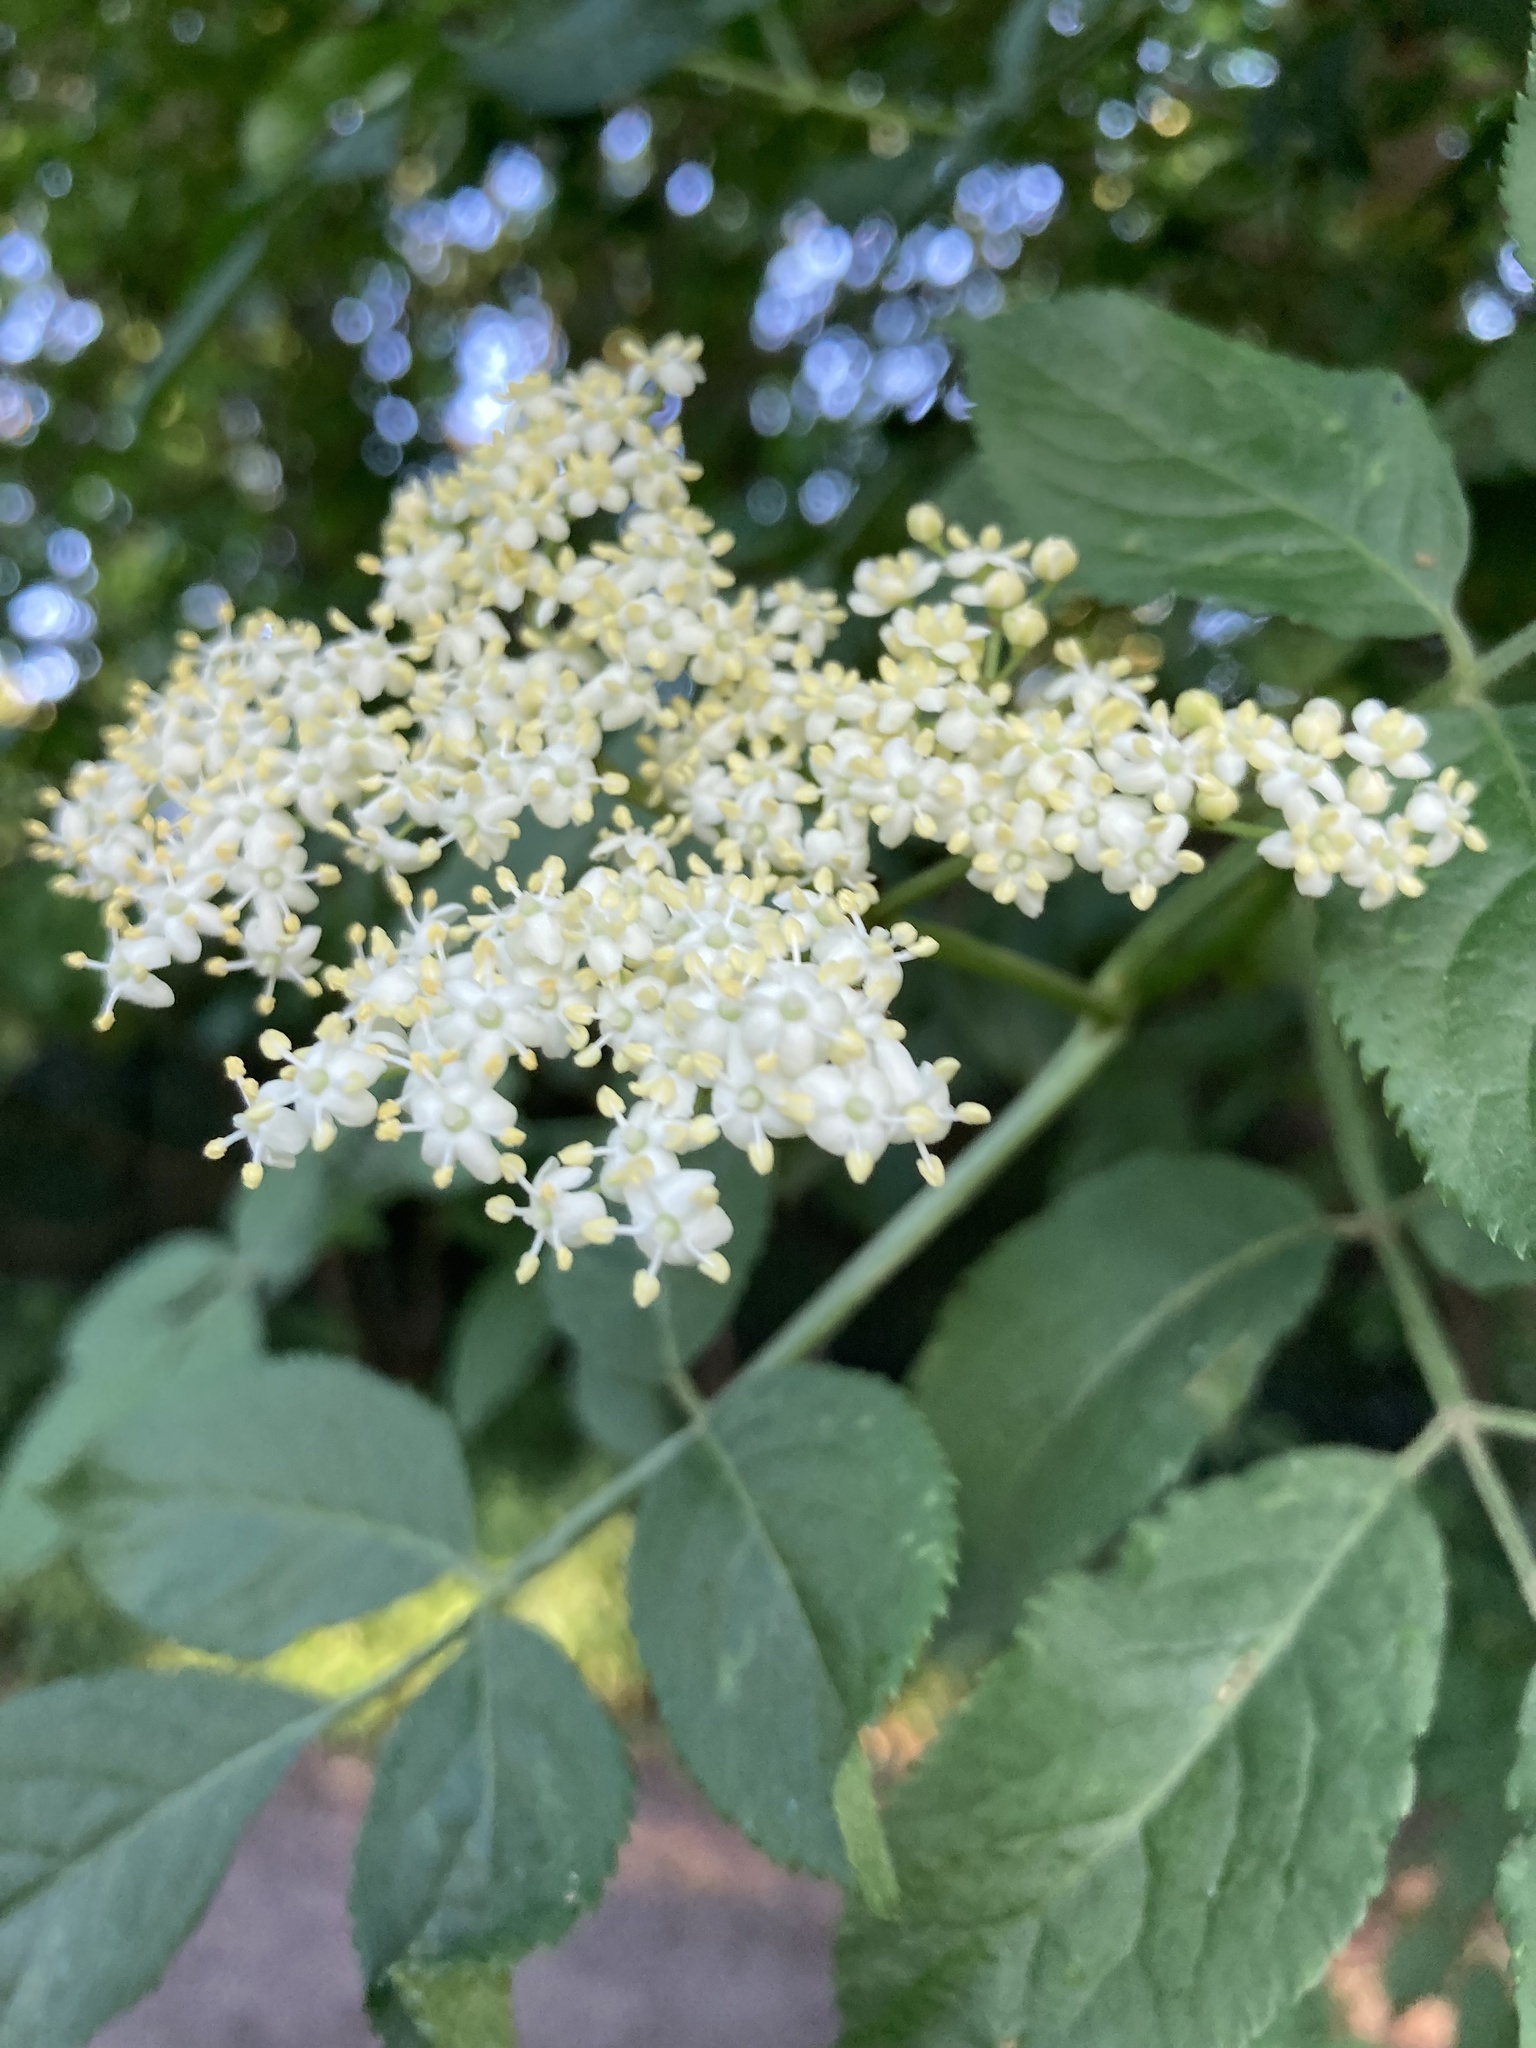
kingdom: Plantae
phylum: Tracheophyta
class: Magnoliopsida
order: Dipsacales
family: Viburnaceae
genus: Sambucus
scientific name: Sambucus nigra
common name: Elder
